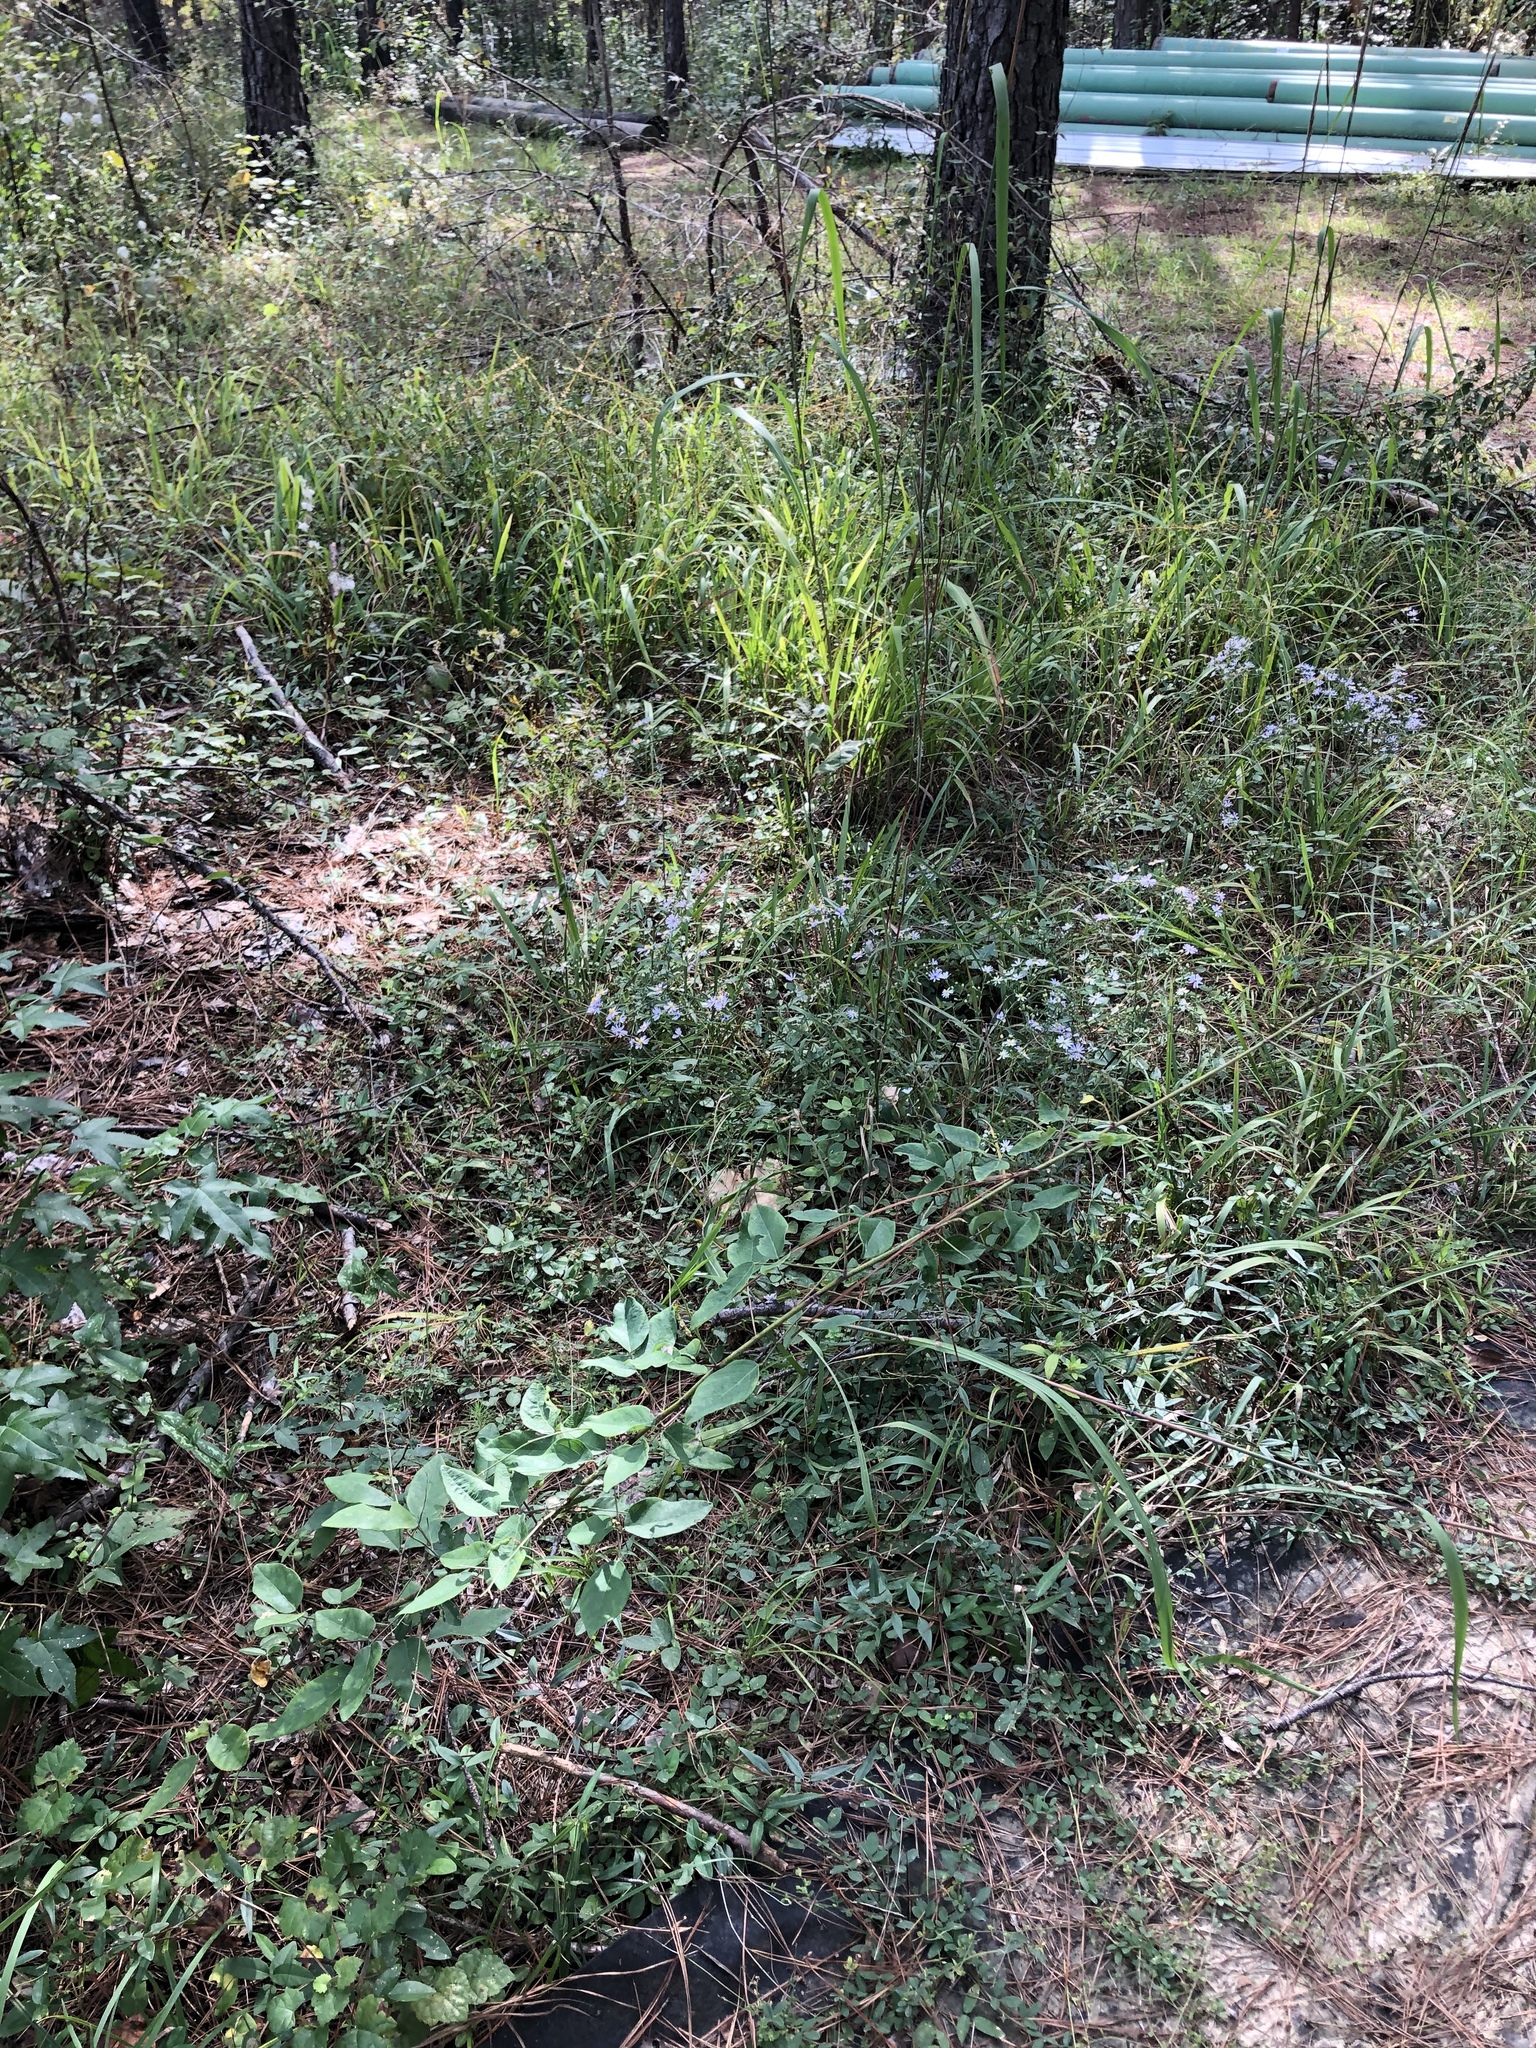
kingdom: Plantae
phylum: Tracheophyta
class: Magnoliopsida
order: Fabales
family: Fabaceae
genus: Desmodium
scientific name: Desmodium laevigatum
